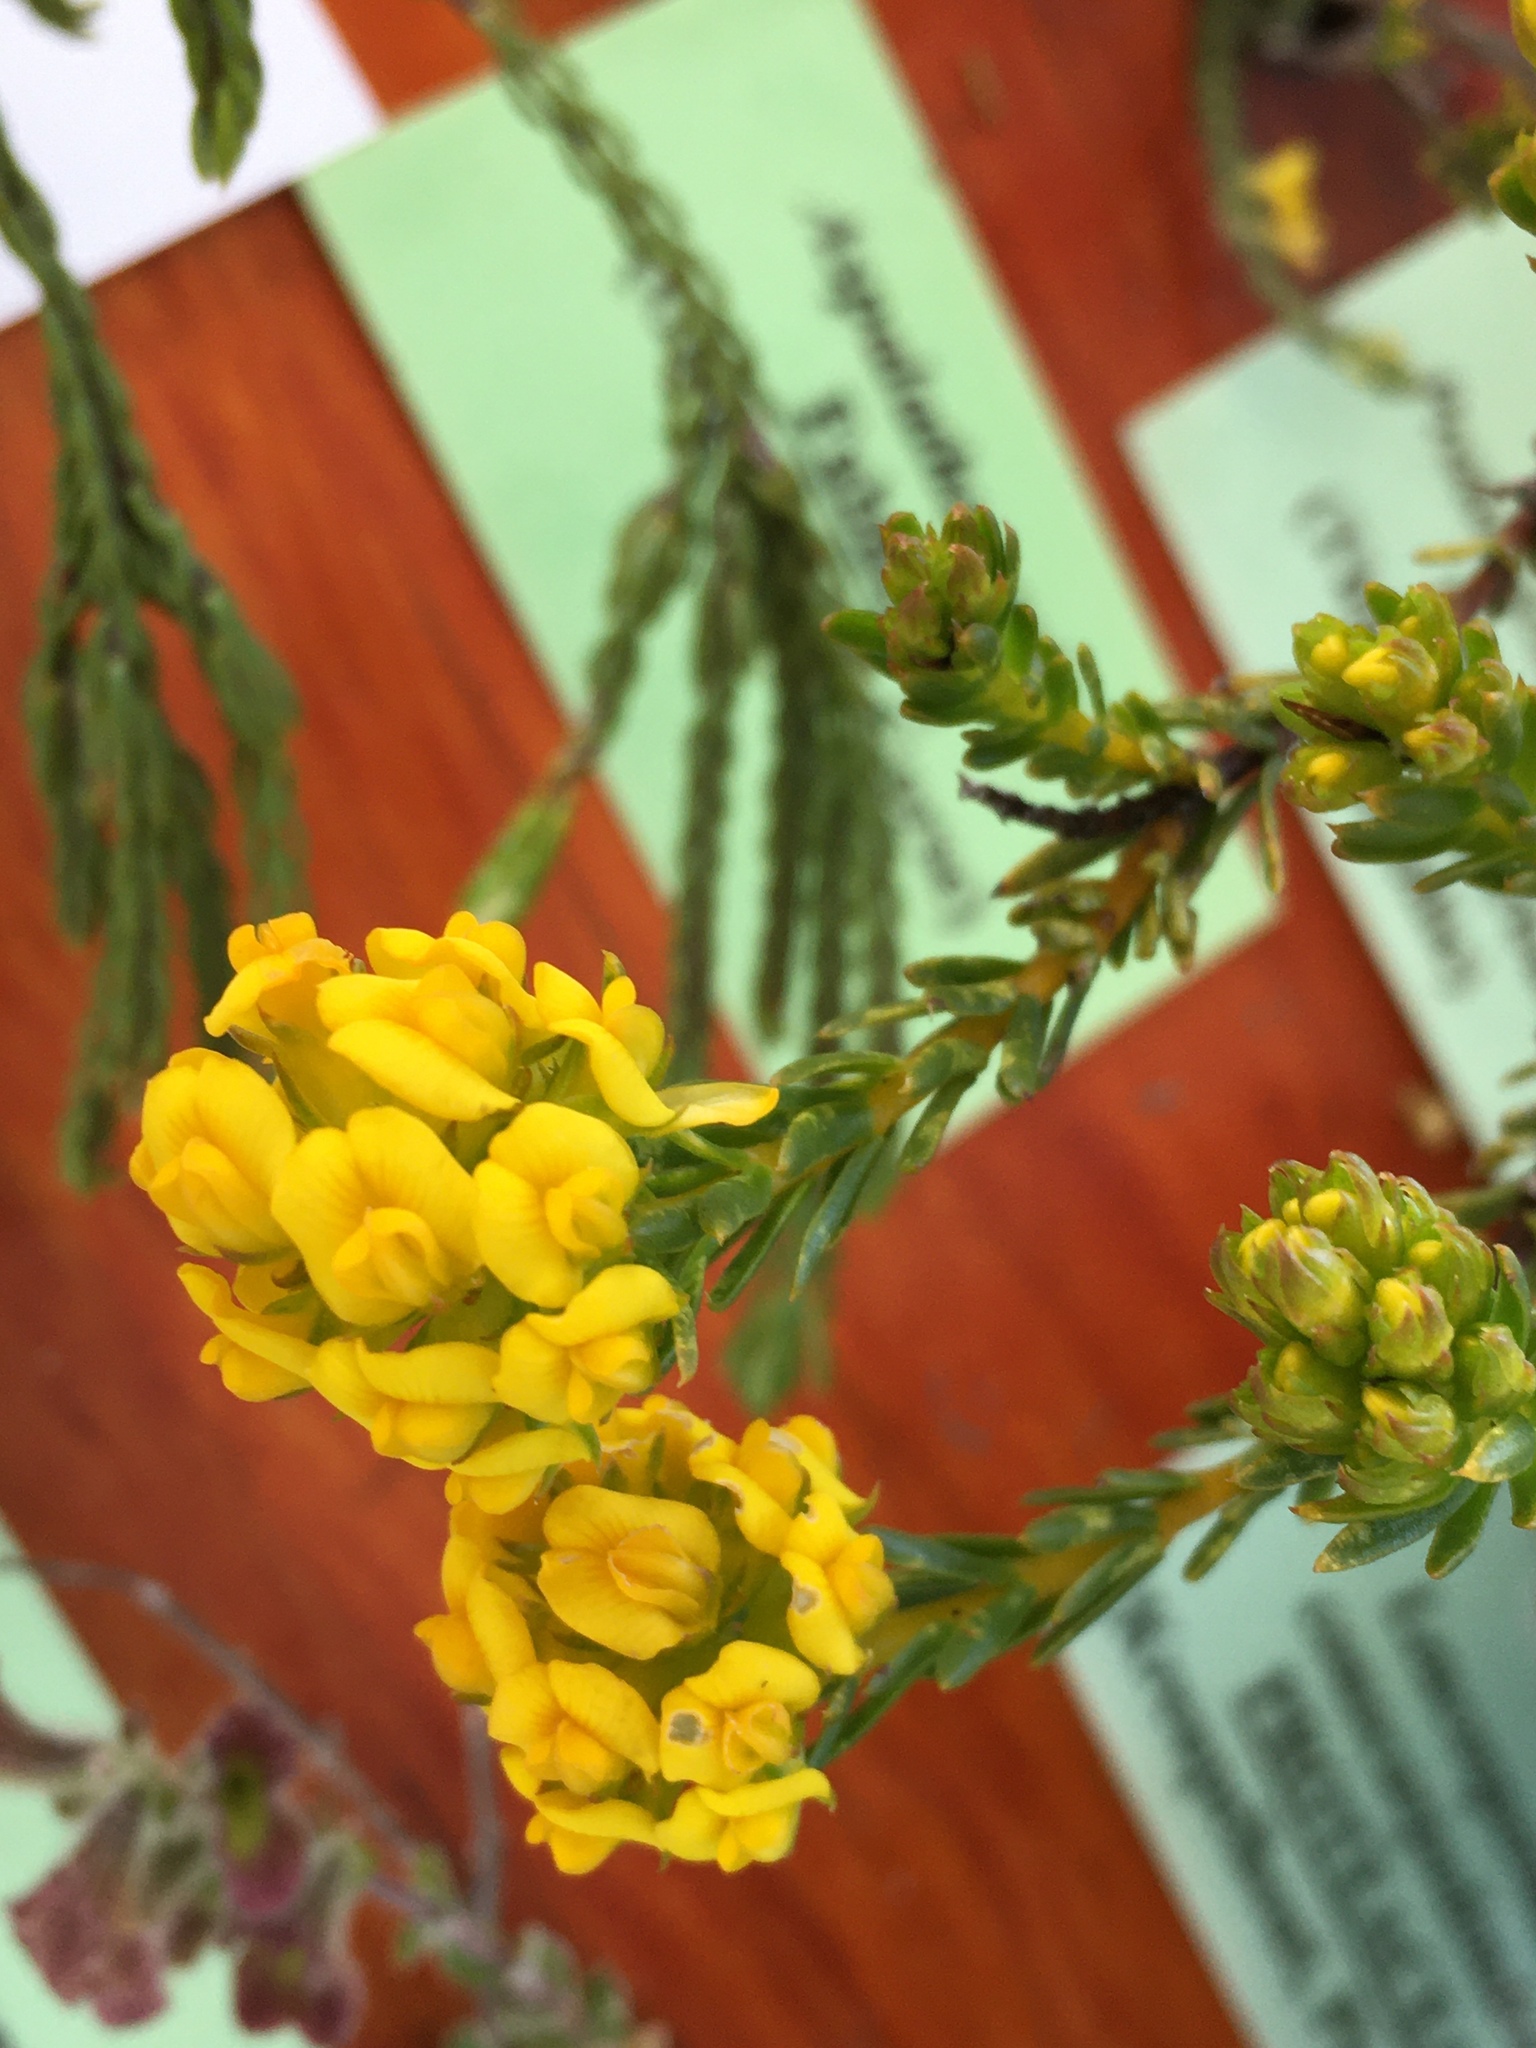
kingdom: Plantae
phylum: Tracheophyta
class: Magnoliopsida
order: Fabales
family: Fabaceae
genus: Aspalathus
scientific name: Aspalathus callosa
